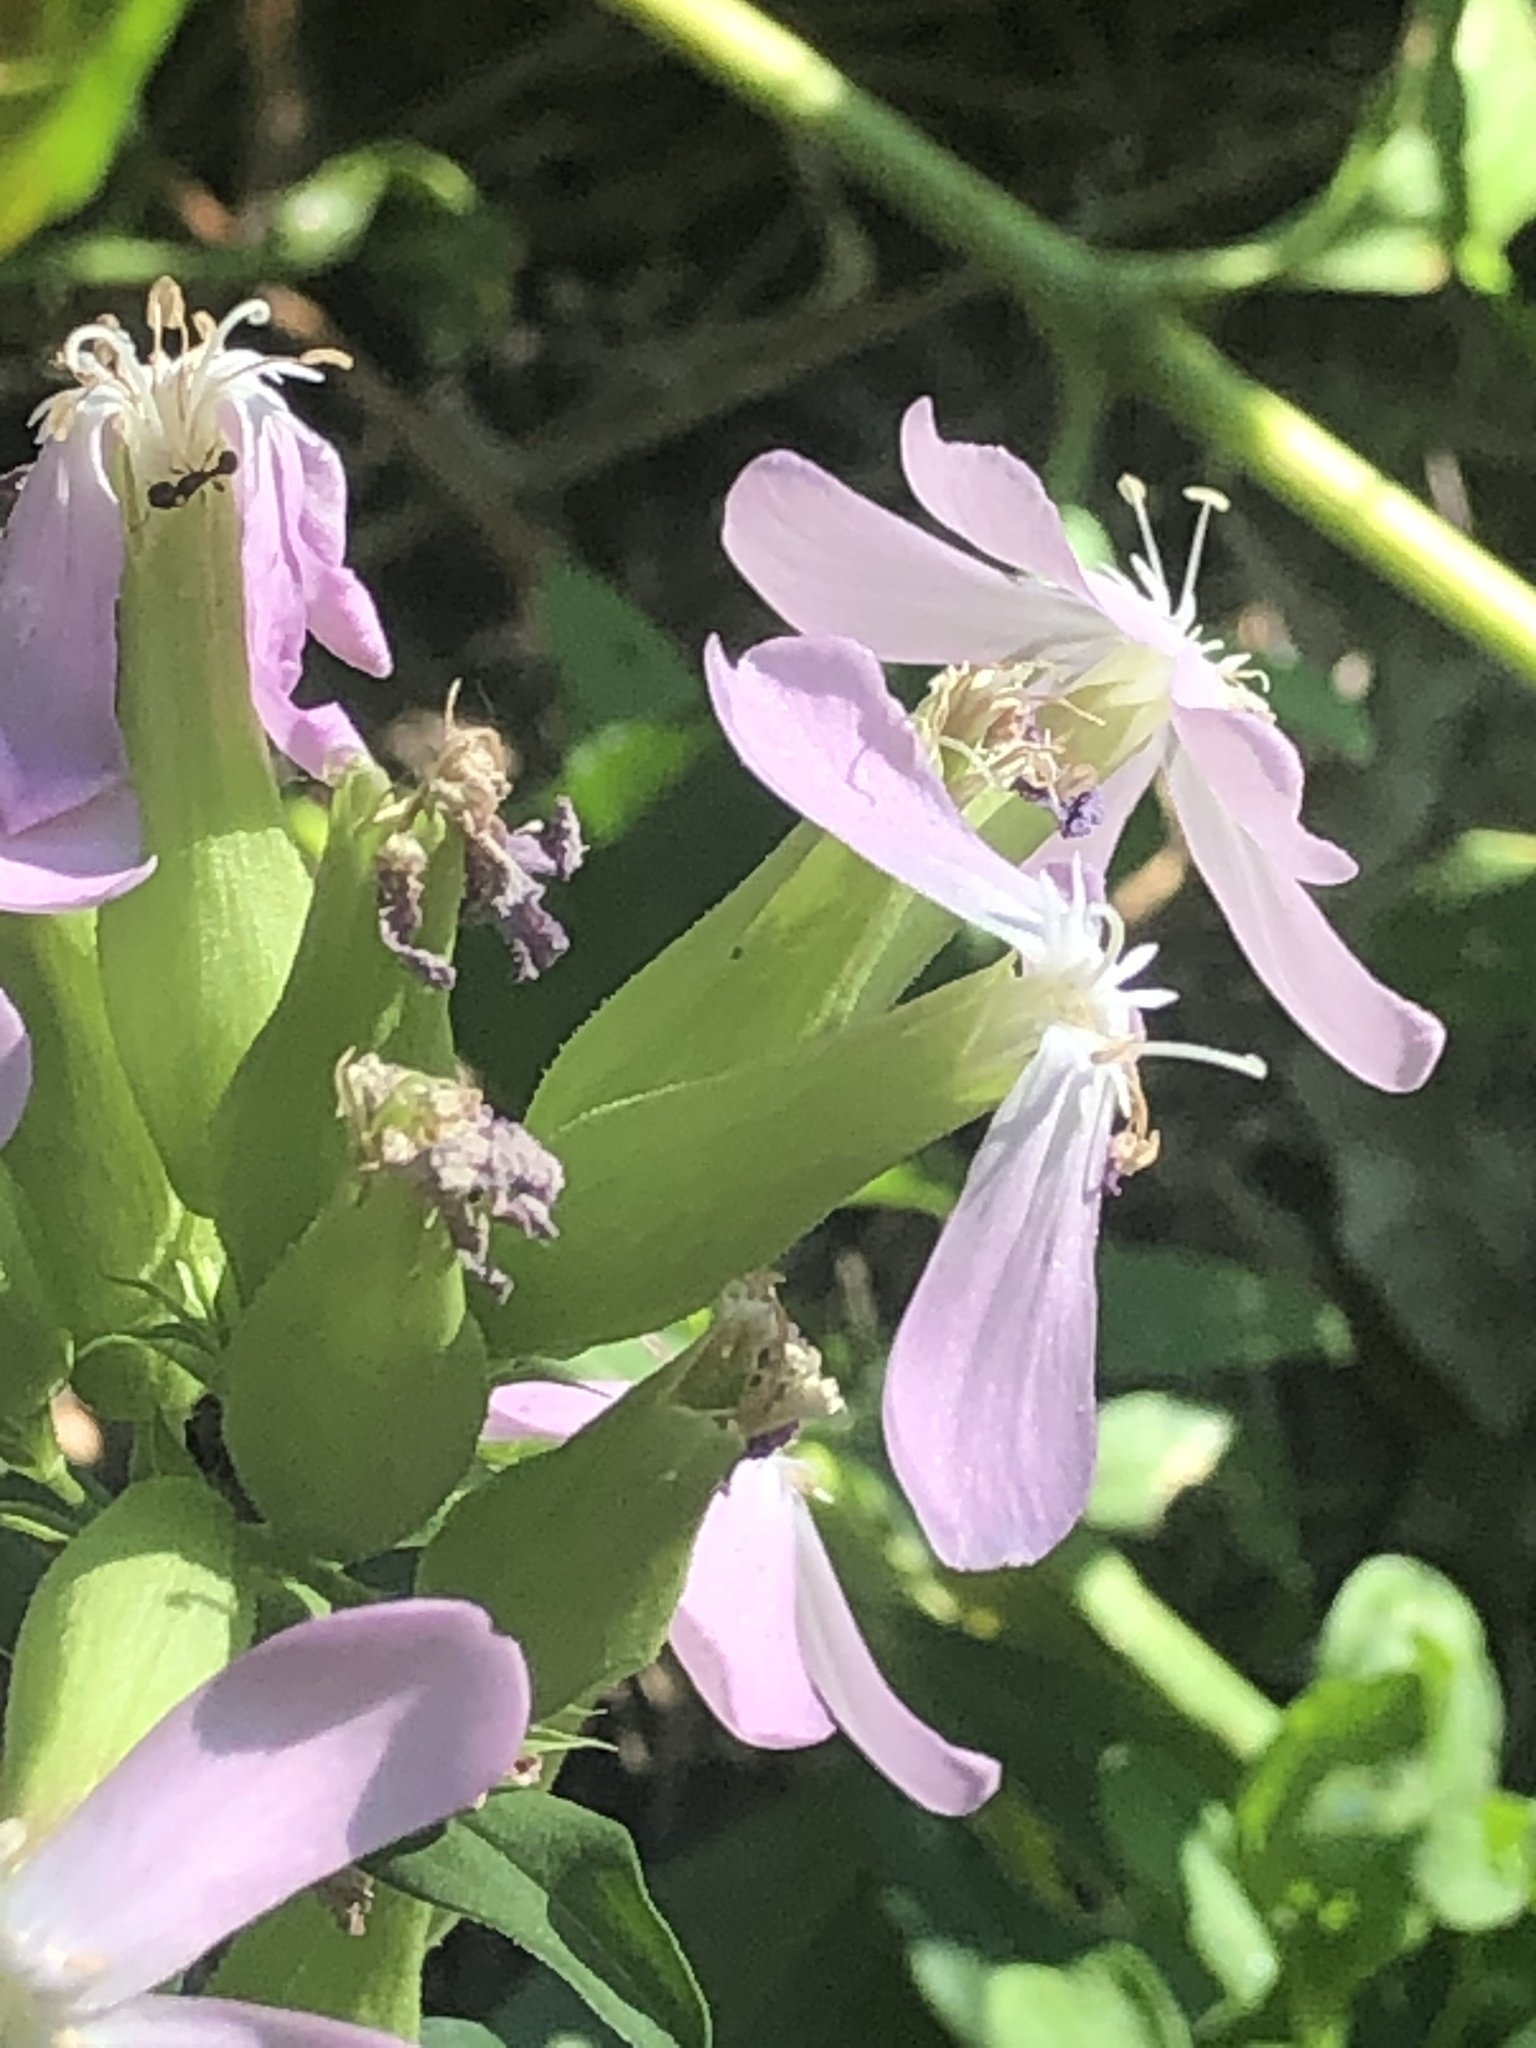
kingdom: Plantae
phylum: Tracheophyta
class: Magnoliopsida
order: Caryophyllales
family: Caryophyllaceae
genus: Saponaria
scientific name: Saponaria officinalis
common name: Soapwort
